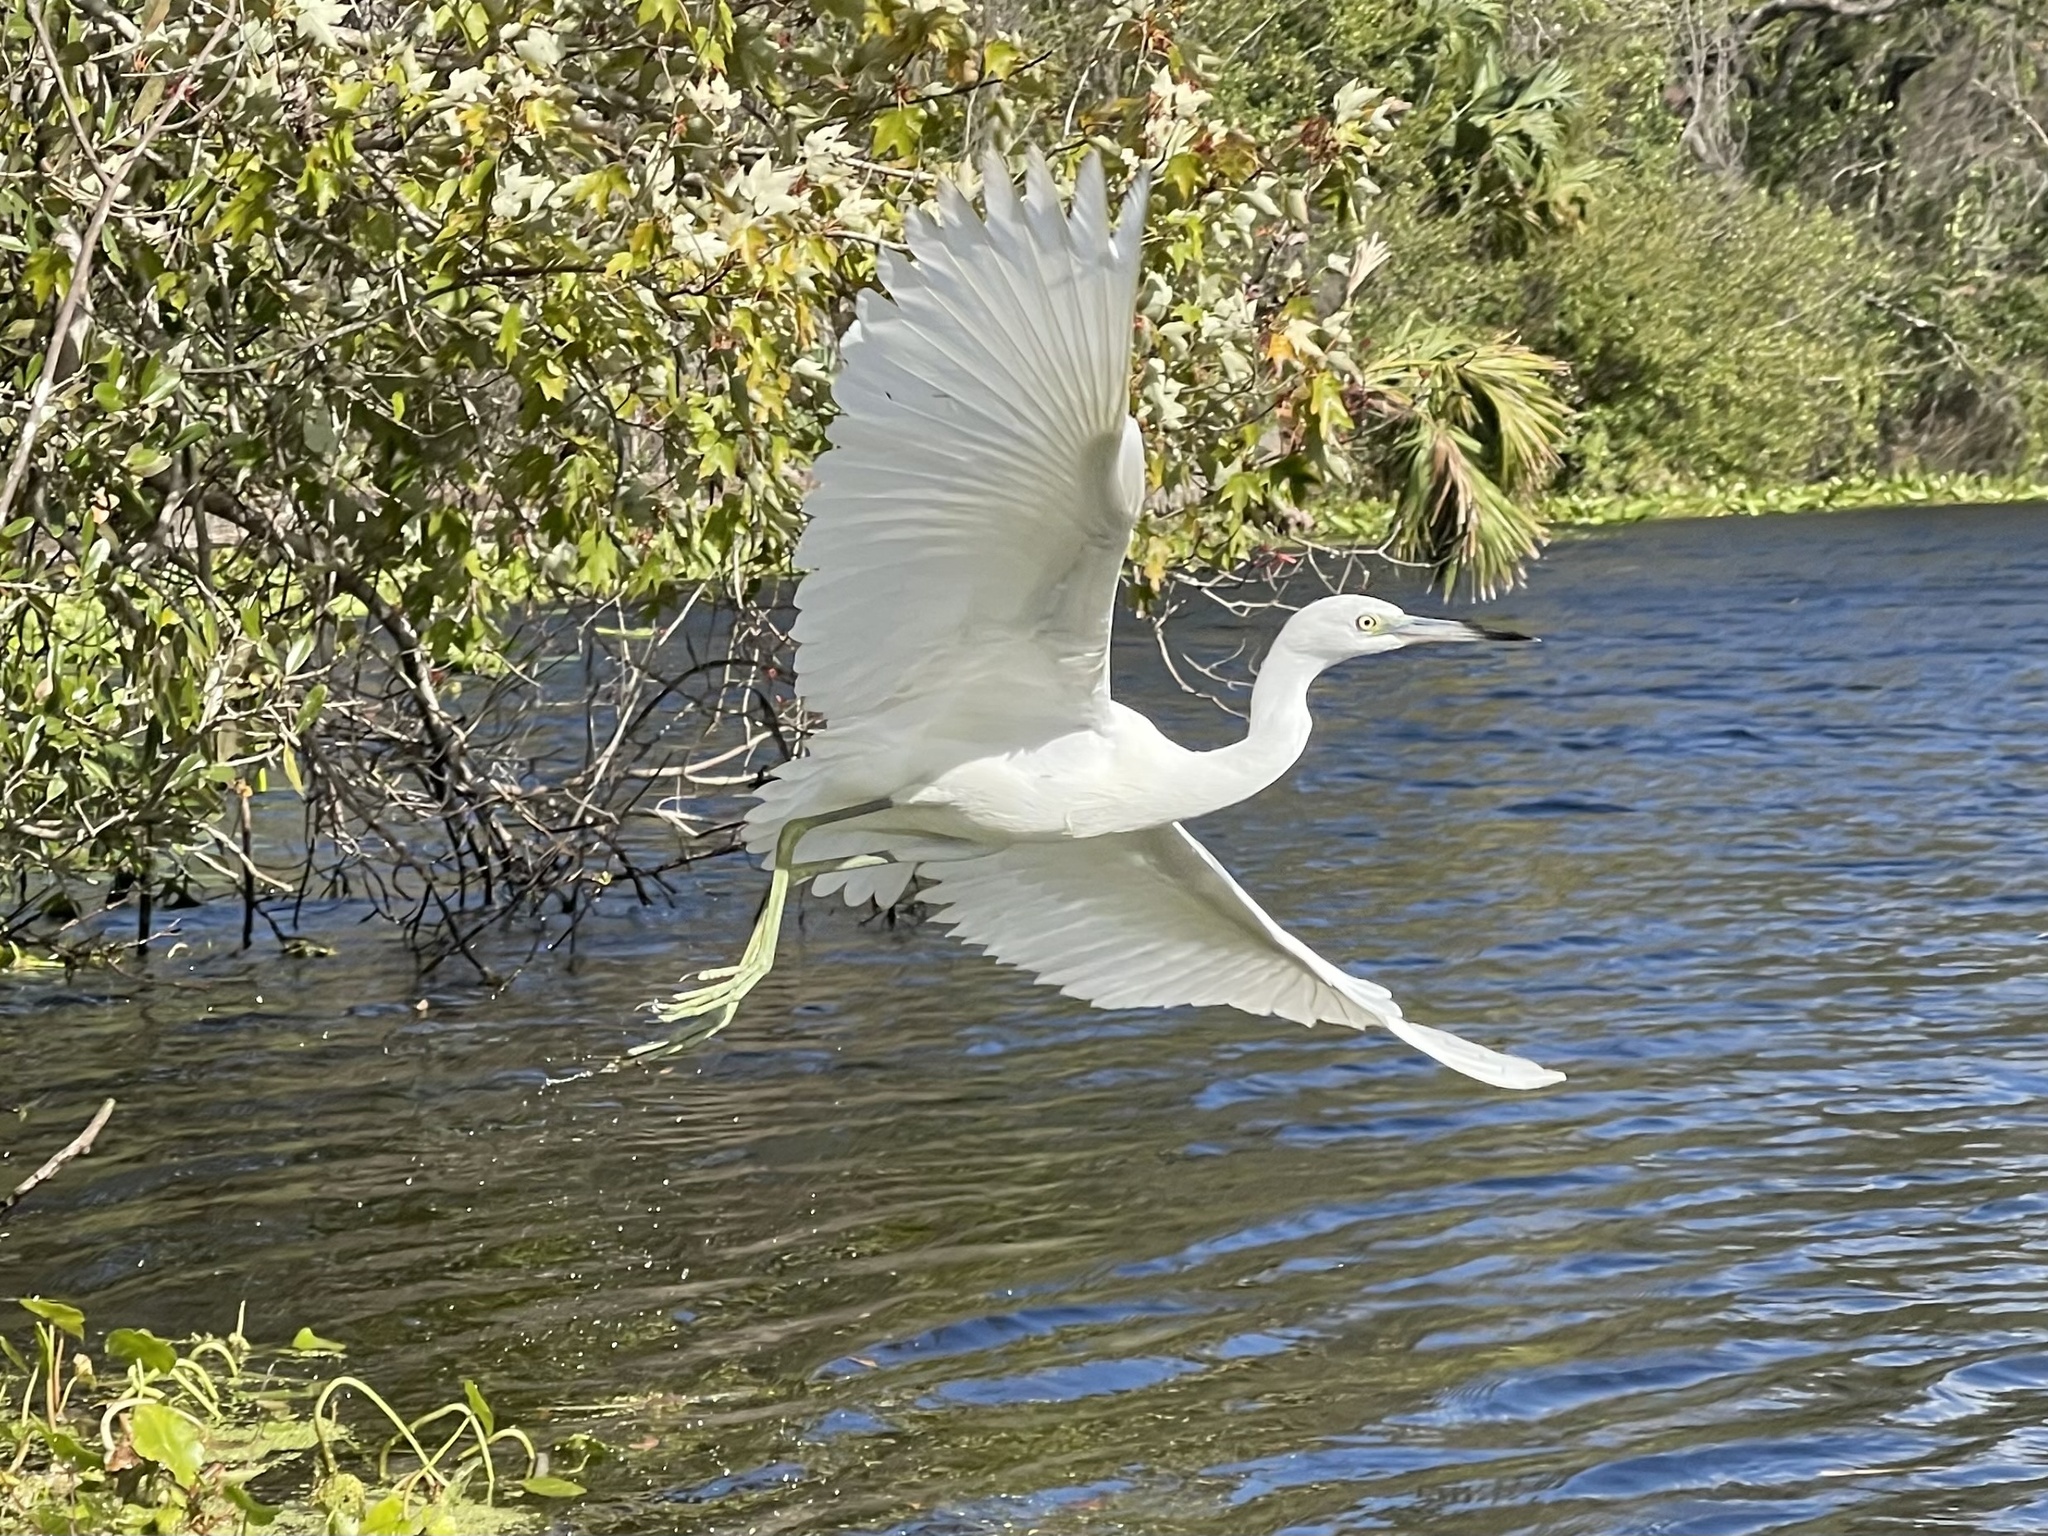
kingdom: Animalia
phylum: Chordata
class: Aves
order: Pelecaniformes
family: Ardeidae
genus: Egretta
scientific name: Egretta caerulea
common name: Little blue heron
